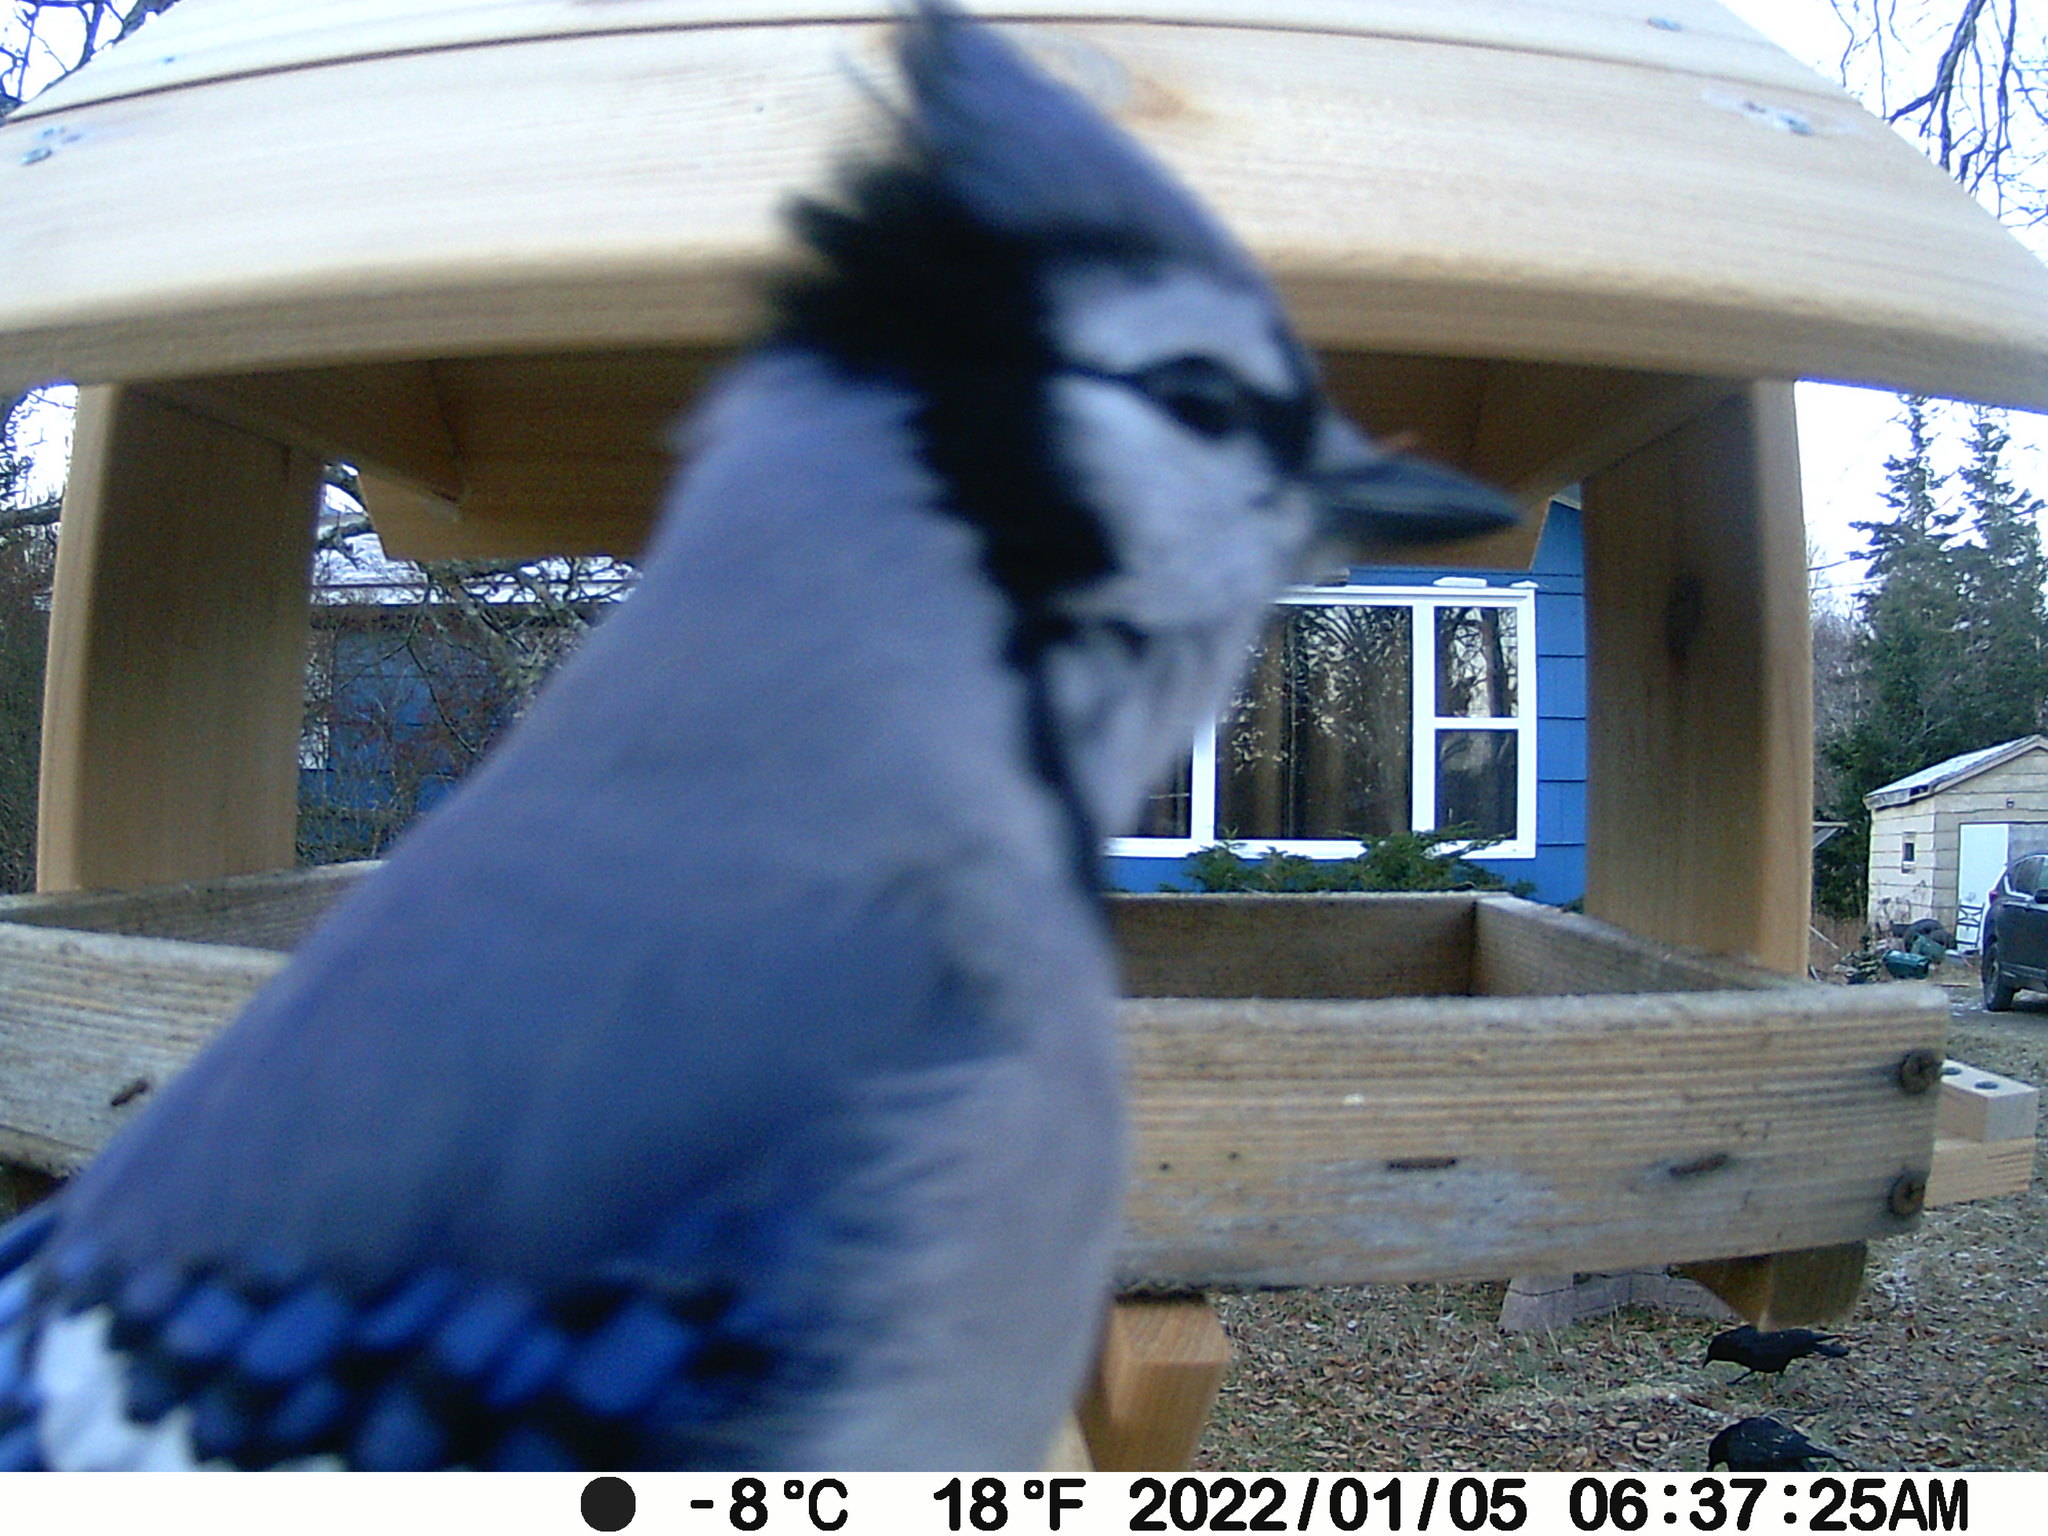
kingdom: Animalia
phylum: Chordata
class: Aves
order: Passeriformes
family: Corvidae
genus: Cyanocitta
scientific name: Cyanocitta cristata
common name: Blue jay
